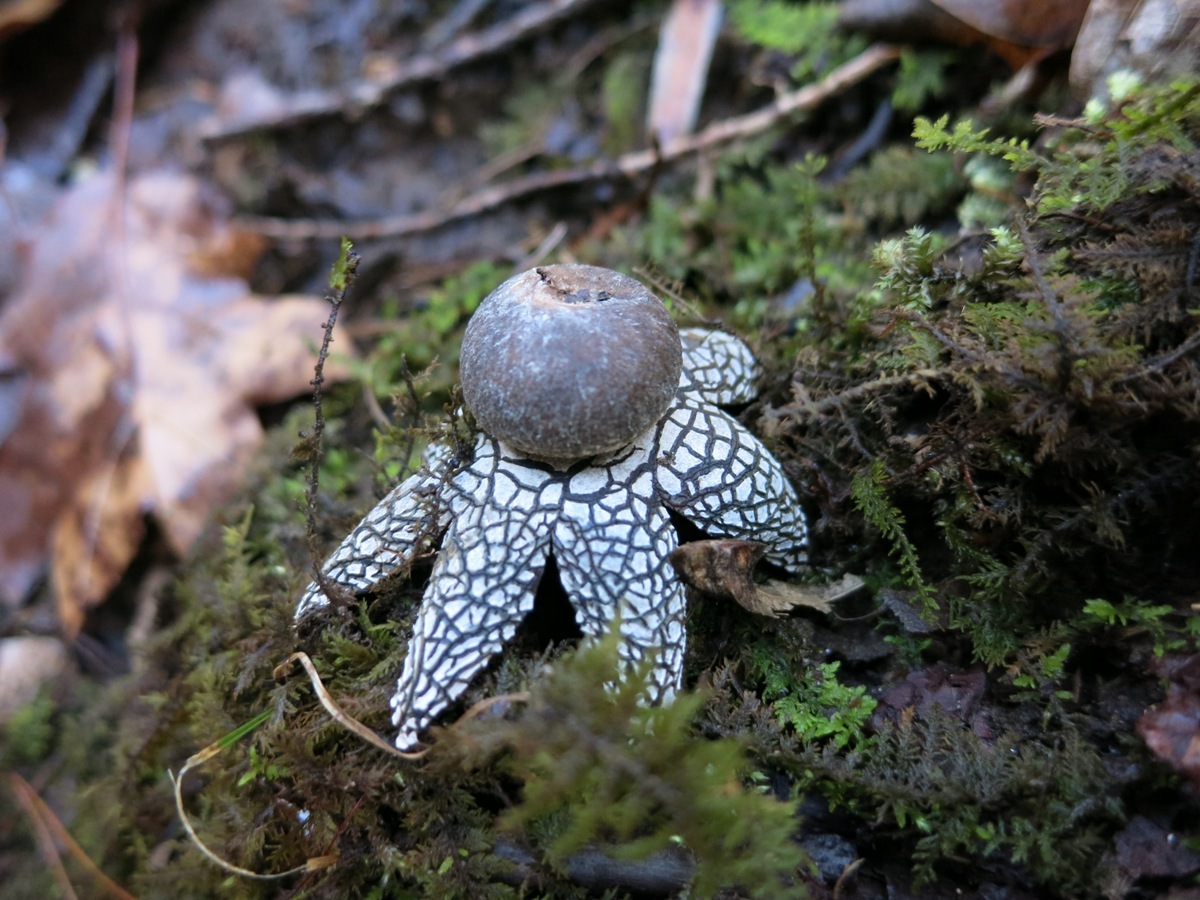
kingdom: Fungi
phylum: Basidiomycota
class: Agaricomycetes
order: Boletales
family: Diplocystidiaceae
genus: Astraeus
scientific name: Astraeus hygrometricus
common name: Barometer earthstar
